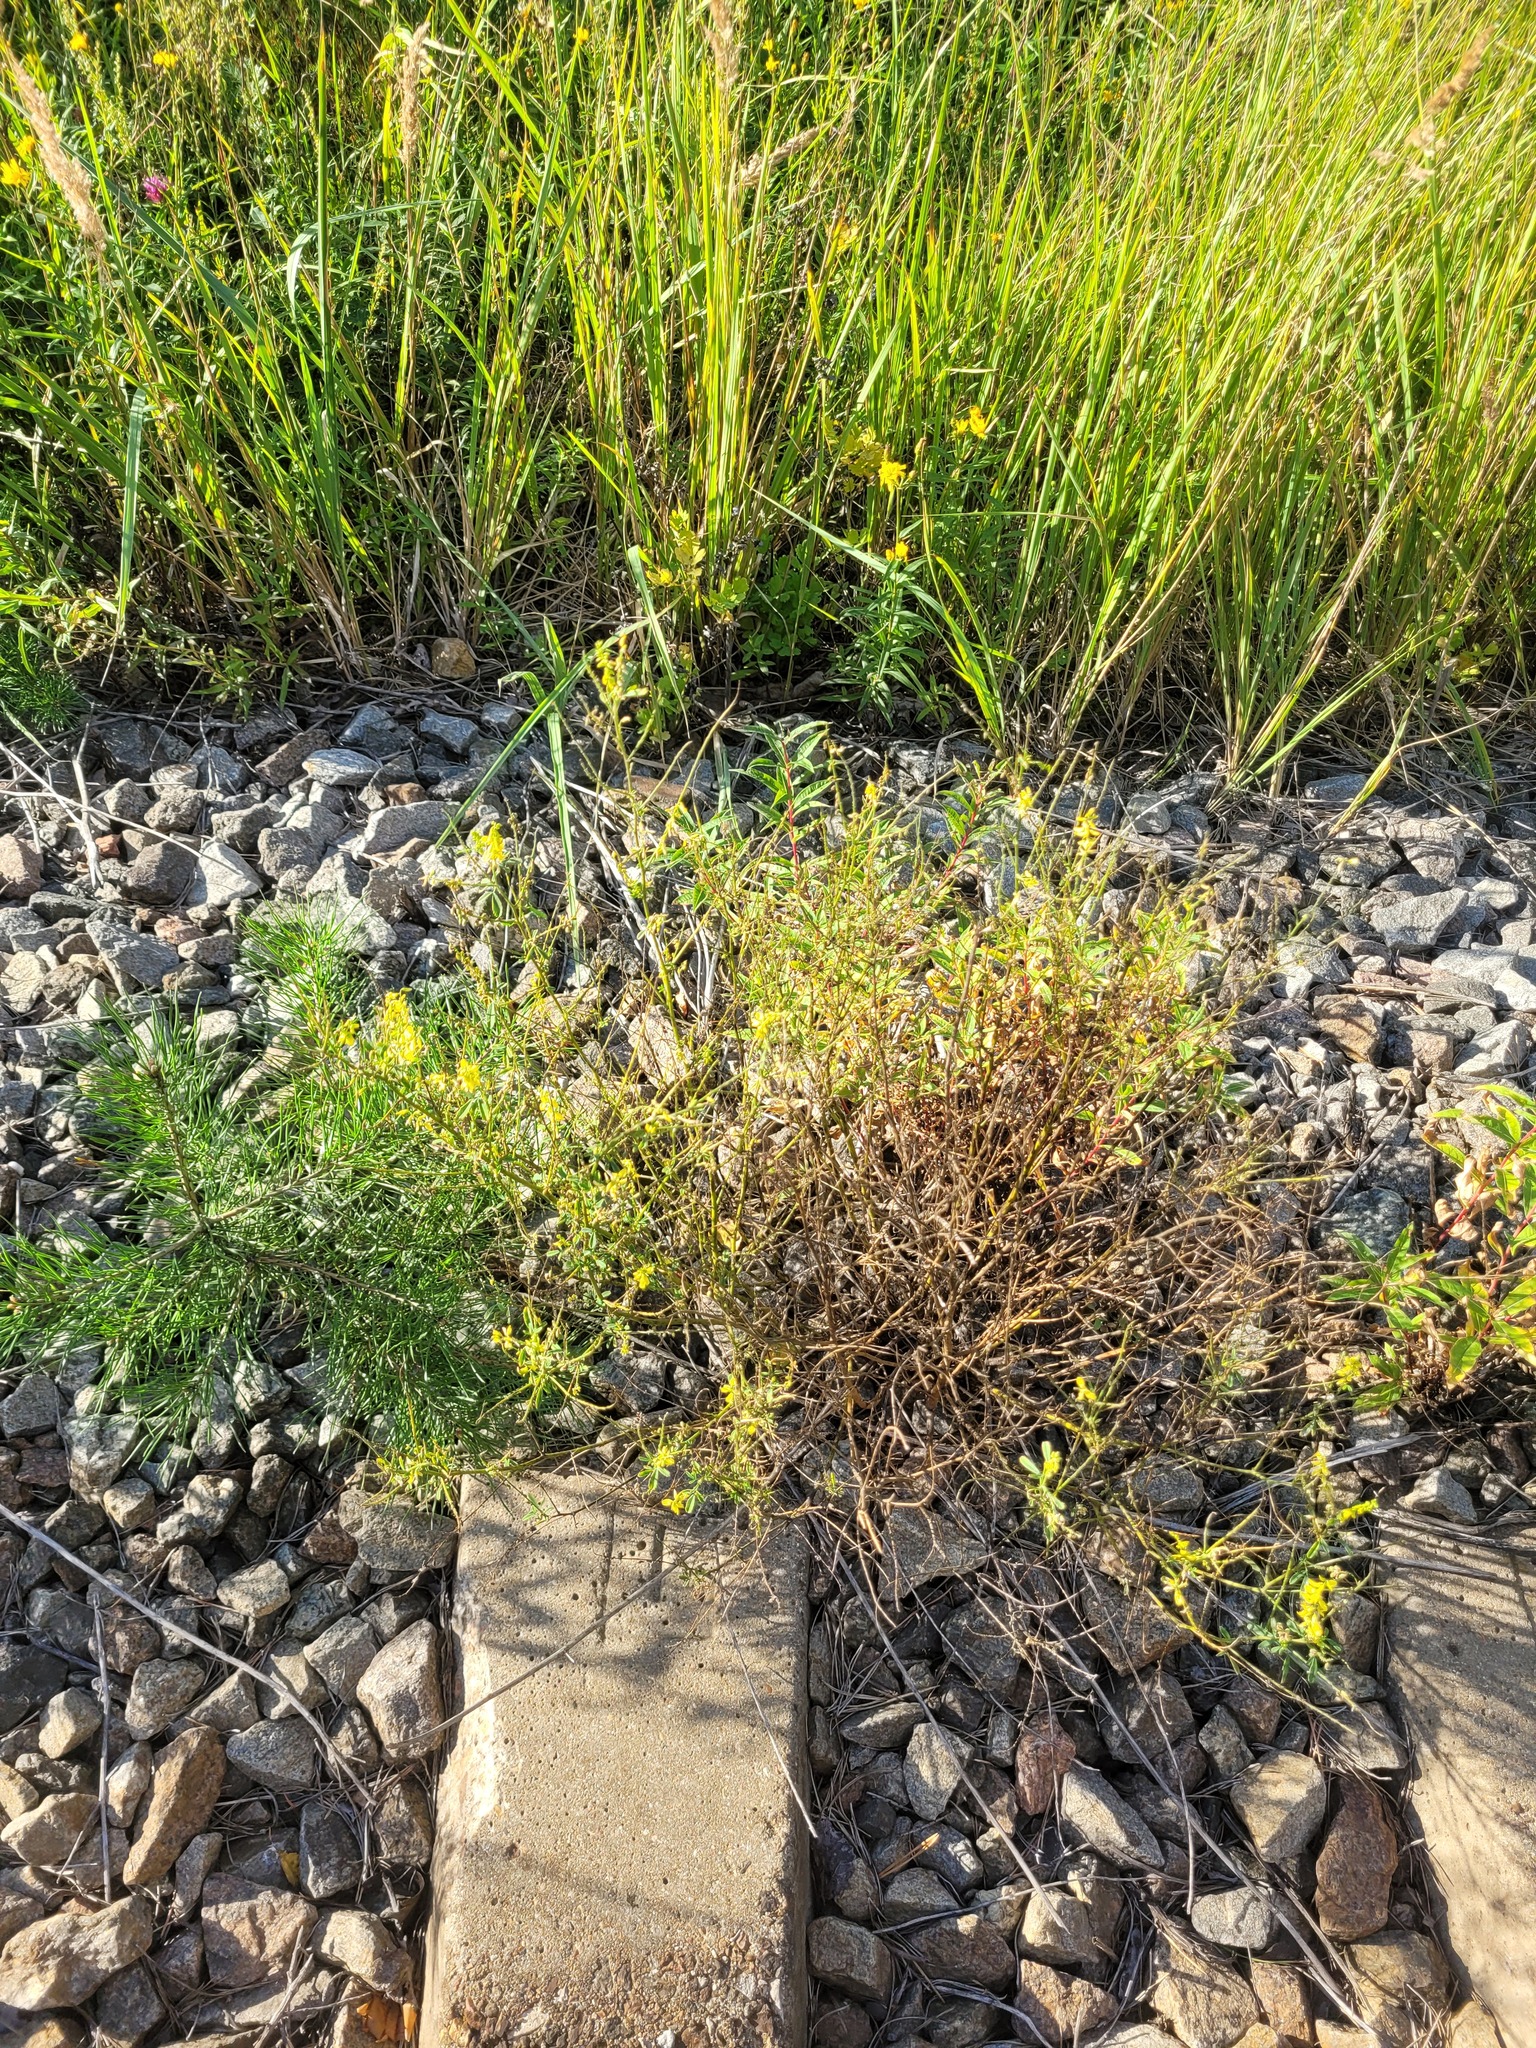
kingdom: Plantae
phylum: Tracheophyta
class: Magnoliopsida
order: Fabales
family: Fabaceae
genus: Melilotus
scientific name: Melilotus officinalis
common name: Sweetclover
